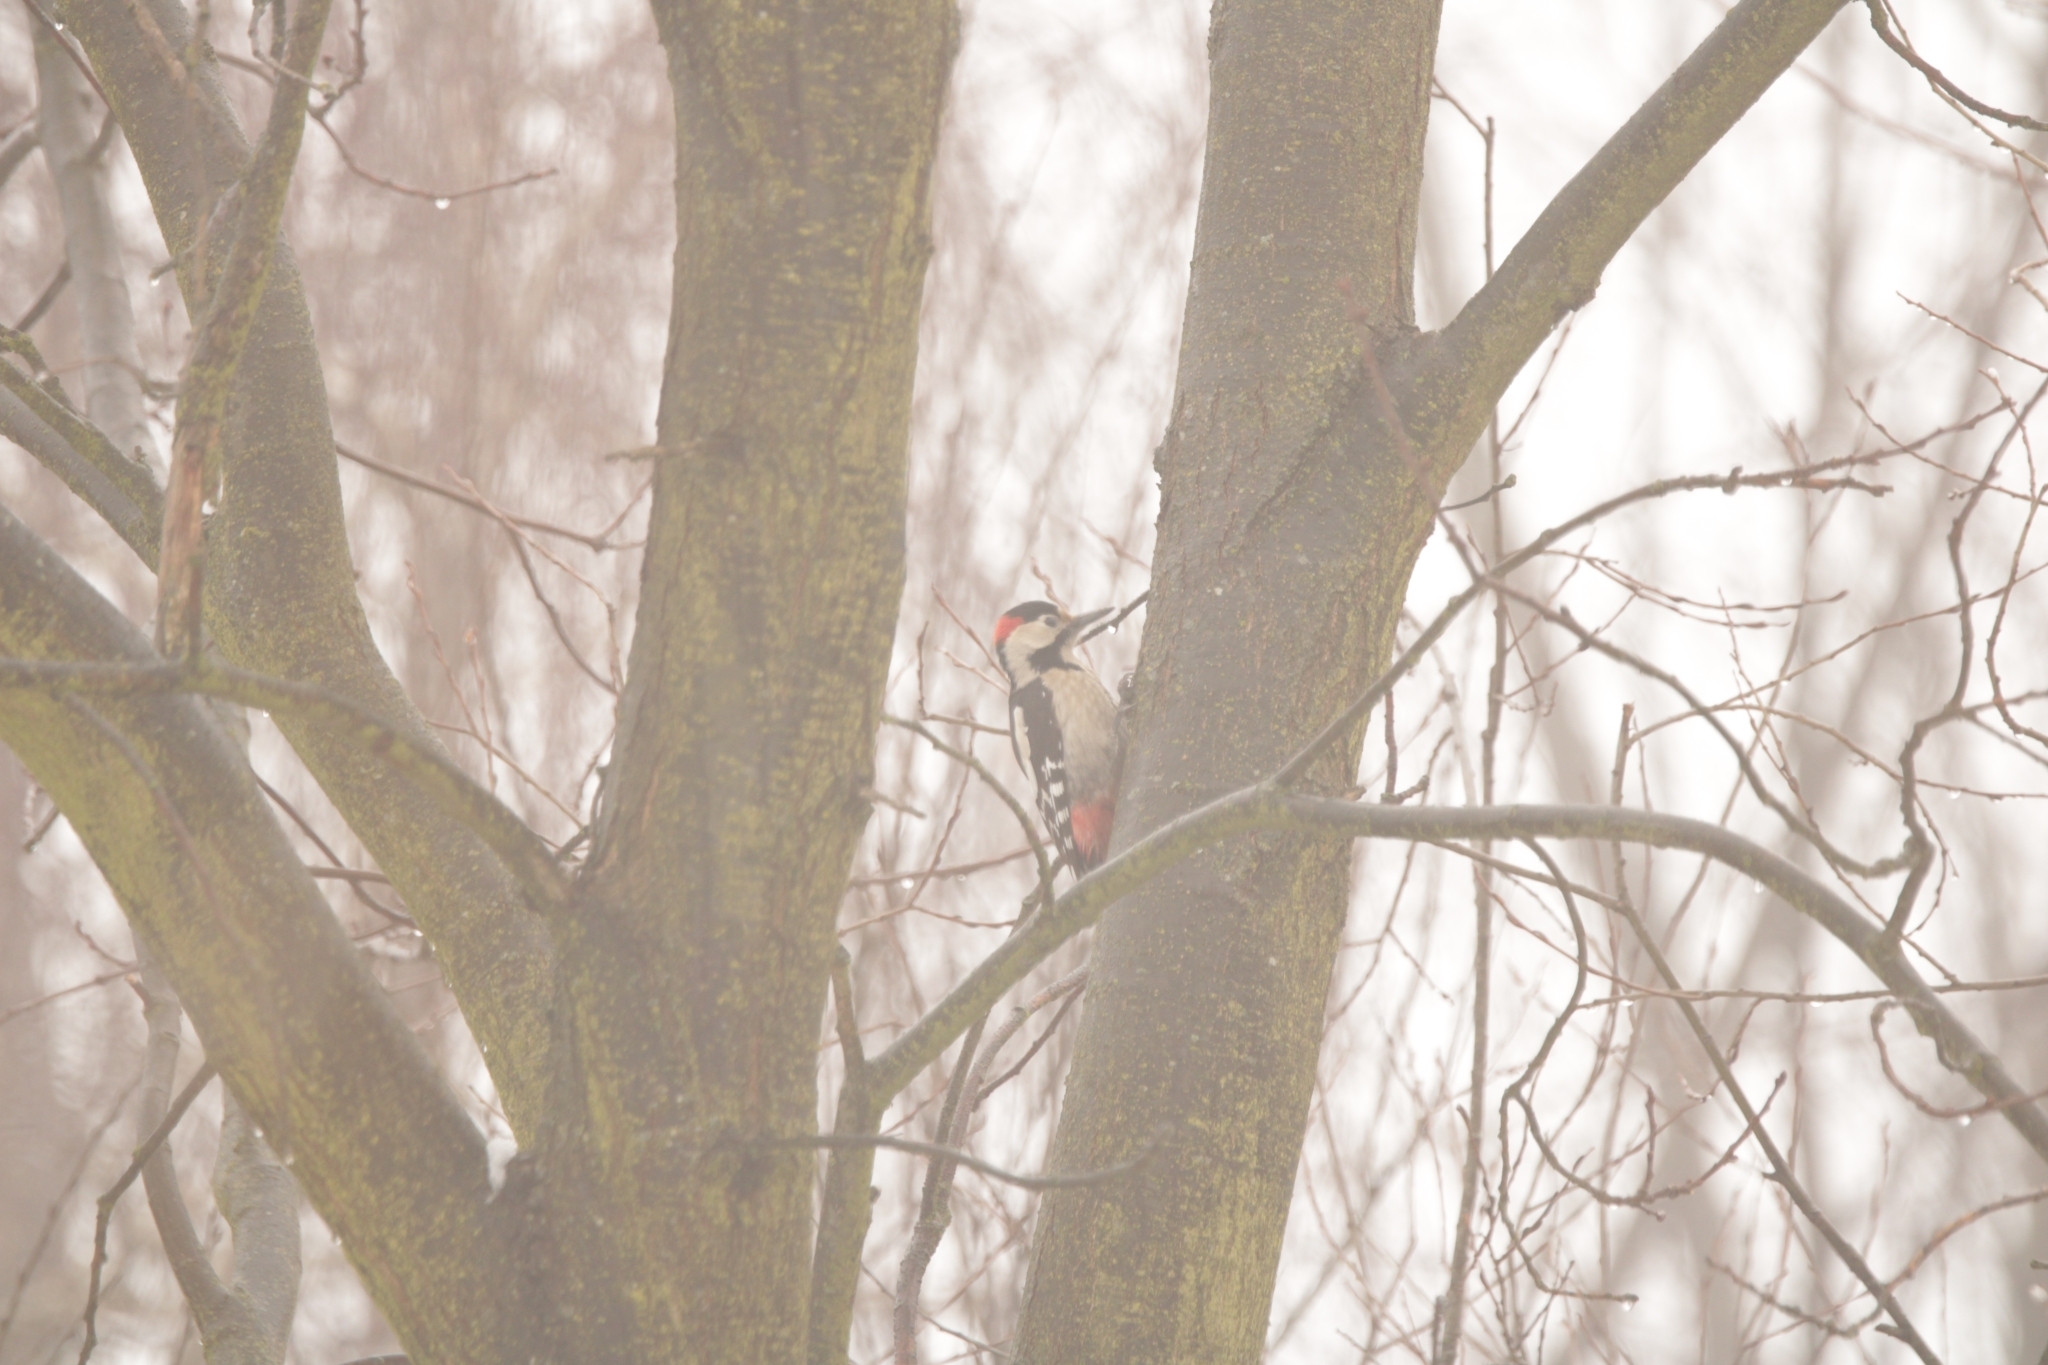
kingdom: Animalia
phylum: Chordata
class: Aves
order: Piciformes
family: Picidae
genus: Dendrocopos
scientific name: Dendrocopos syriacus
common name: Syrian woodpecker
